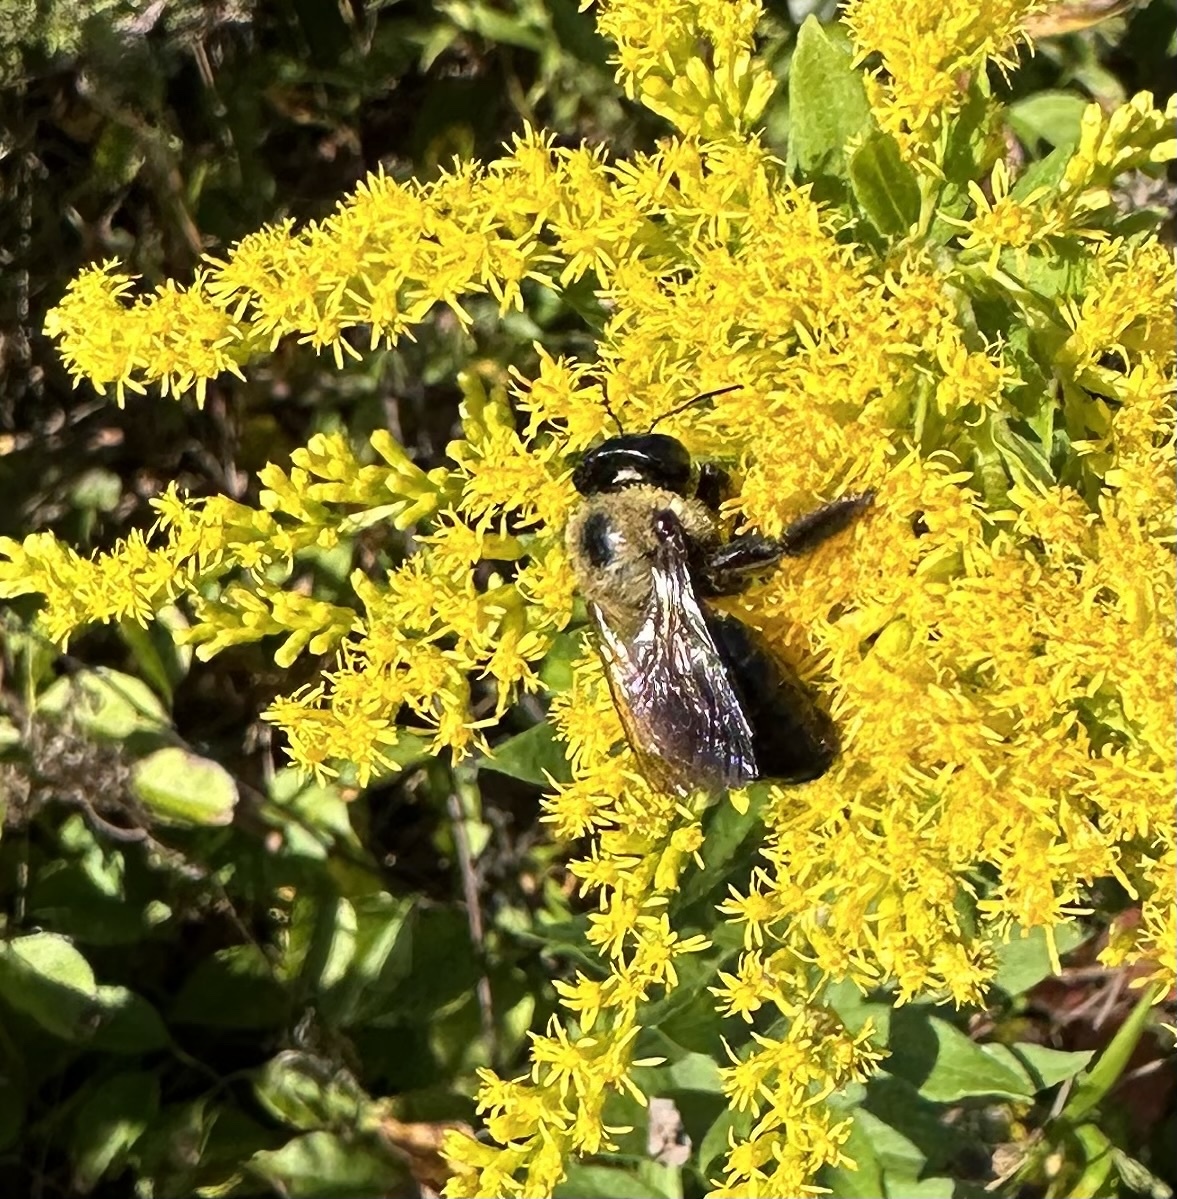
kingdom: Animalia
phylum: Arthropoda
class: Insecta
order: Hymenoptera
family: Apidae
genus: Xylocopa
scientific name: Xylocopa virginica
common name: Carpenter bee
